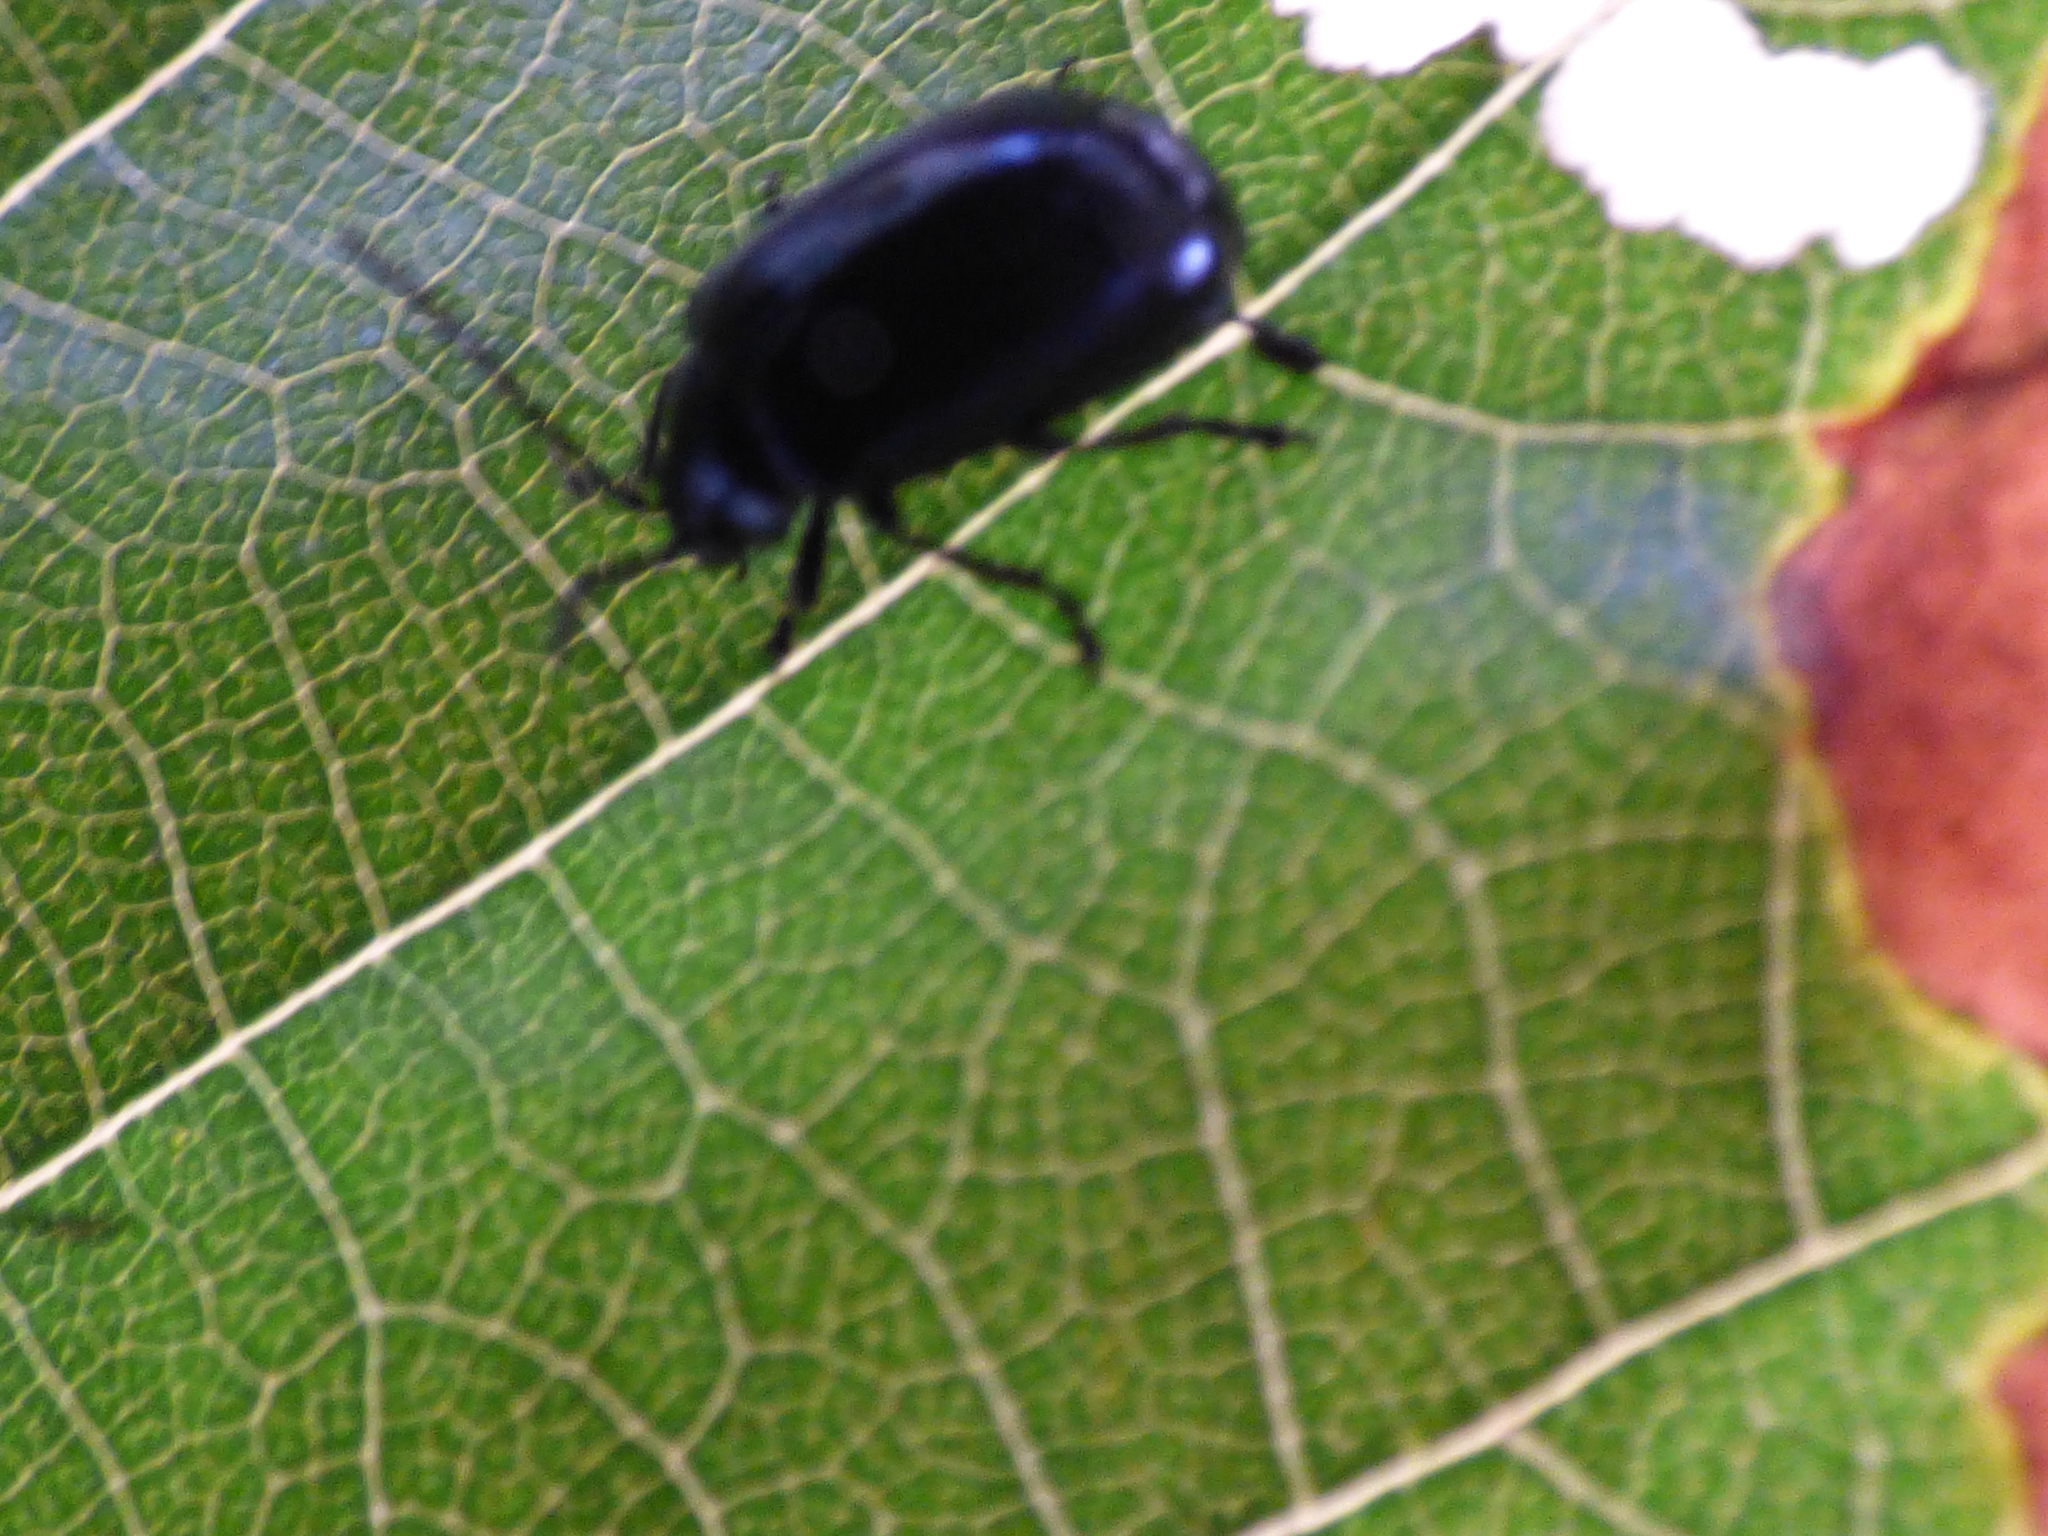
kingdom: Animalia
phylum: Arthropoda
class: Insecta
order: Coleoptera
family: Chrysomelidae
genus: Agelastica
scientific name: Agelastica alni
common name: Alder leaf beetle
